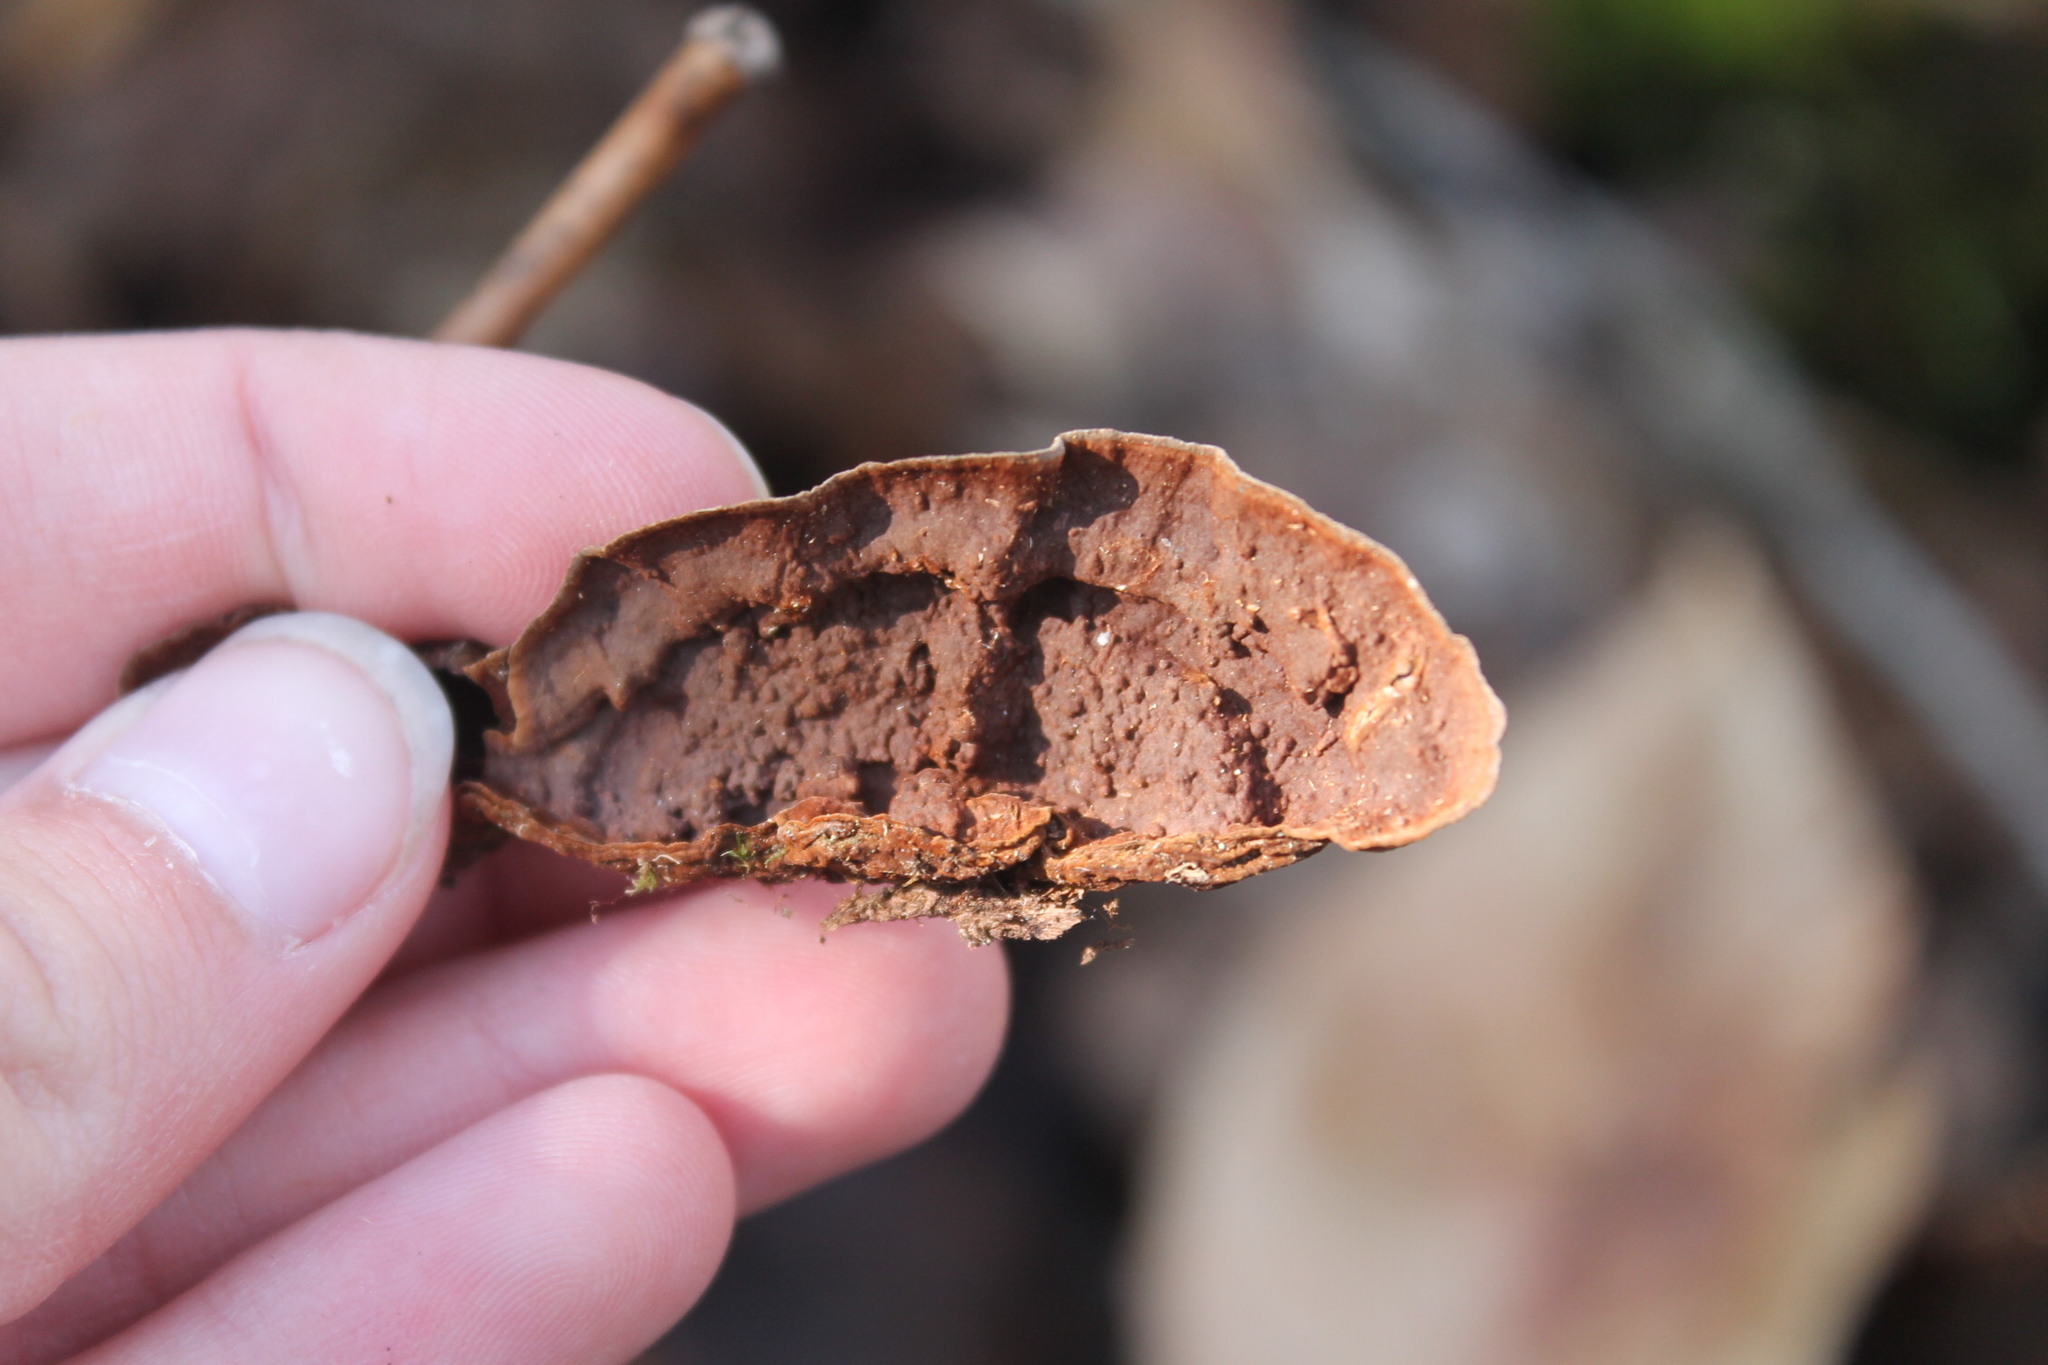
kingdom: Fungi
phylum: Basidiomycota
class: Agaricomycetes
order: Hymenochaetales
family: Hymenochaetaceae
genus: Hymenochaete
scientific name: Hymenochaete rubiginosa
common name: Oak curtain crust
